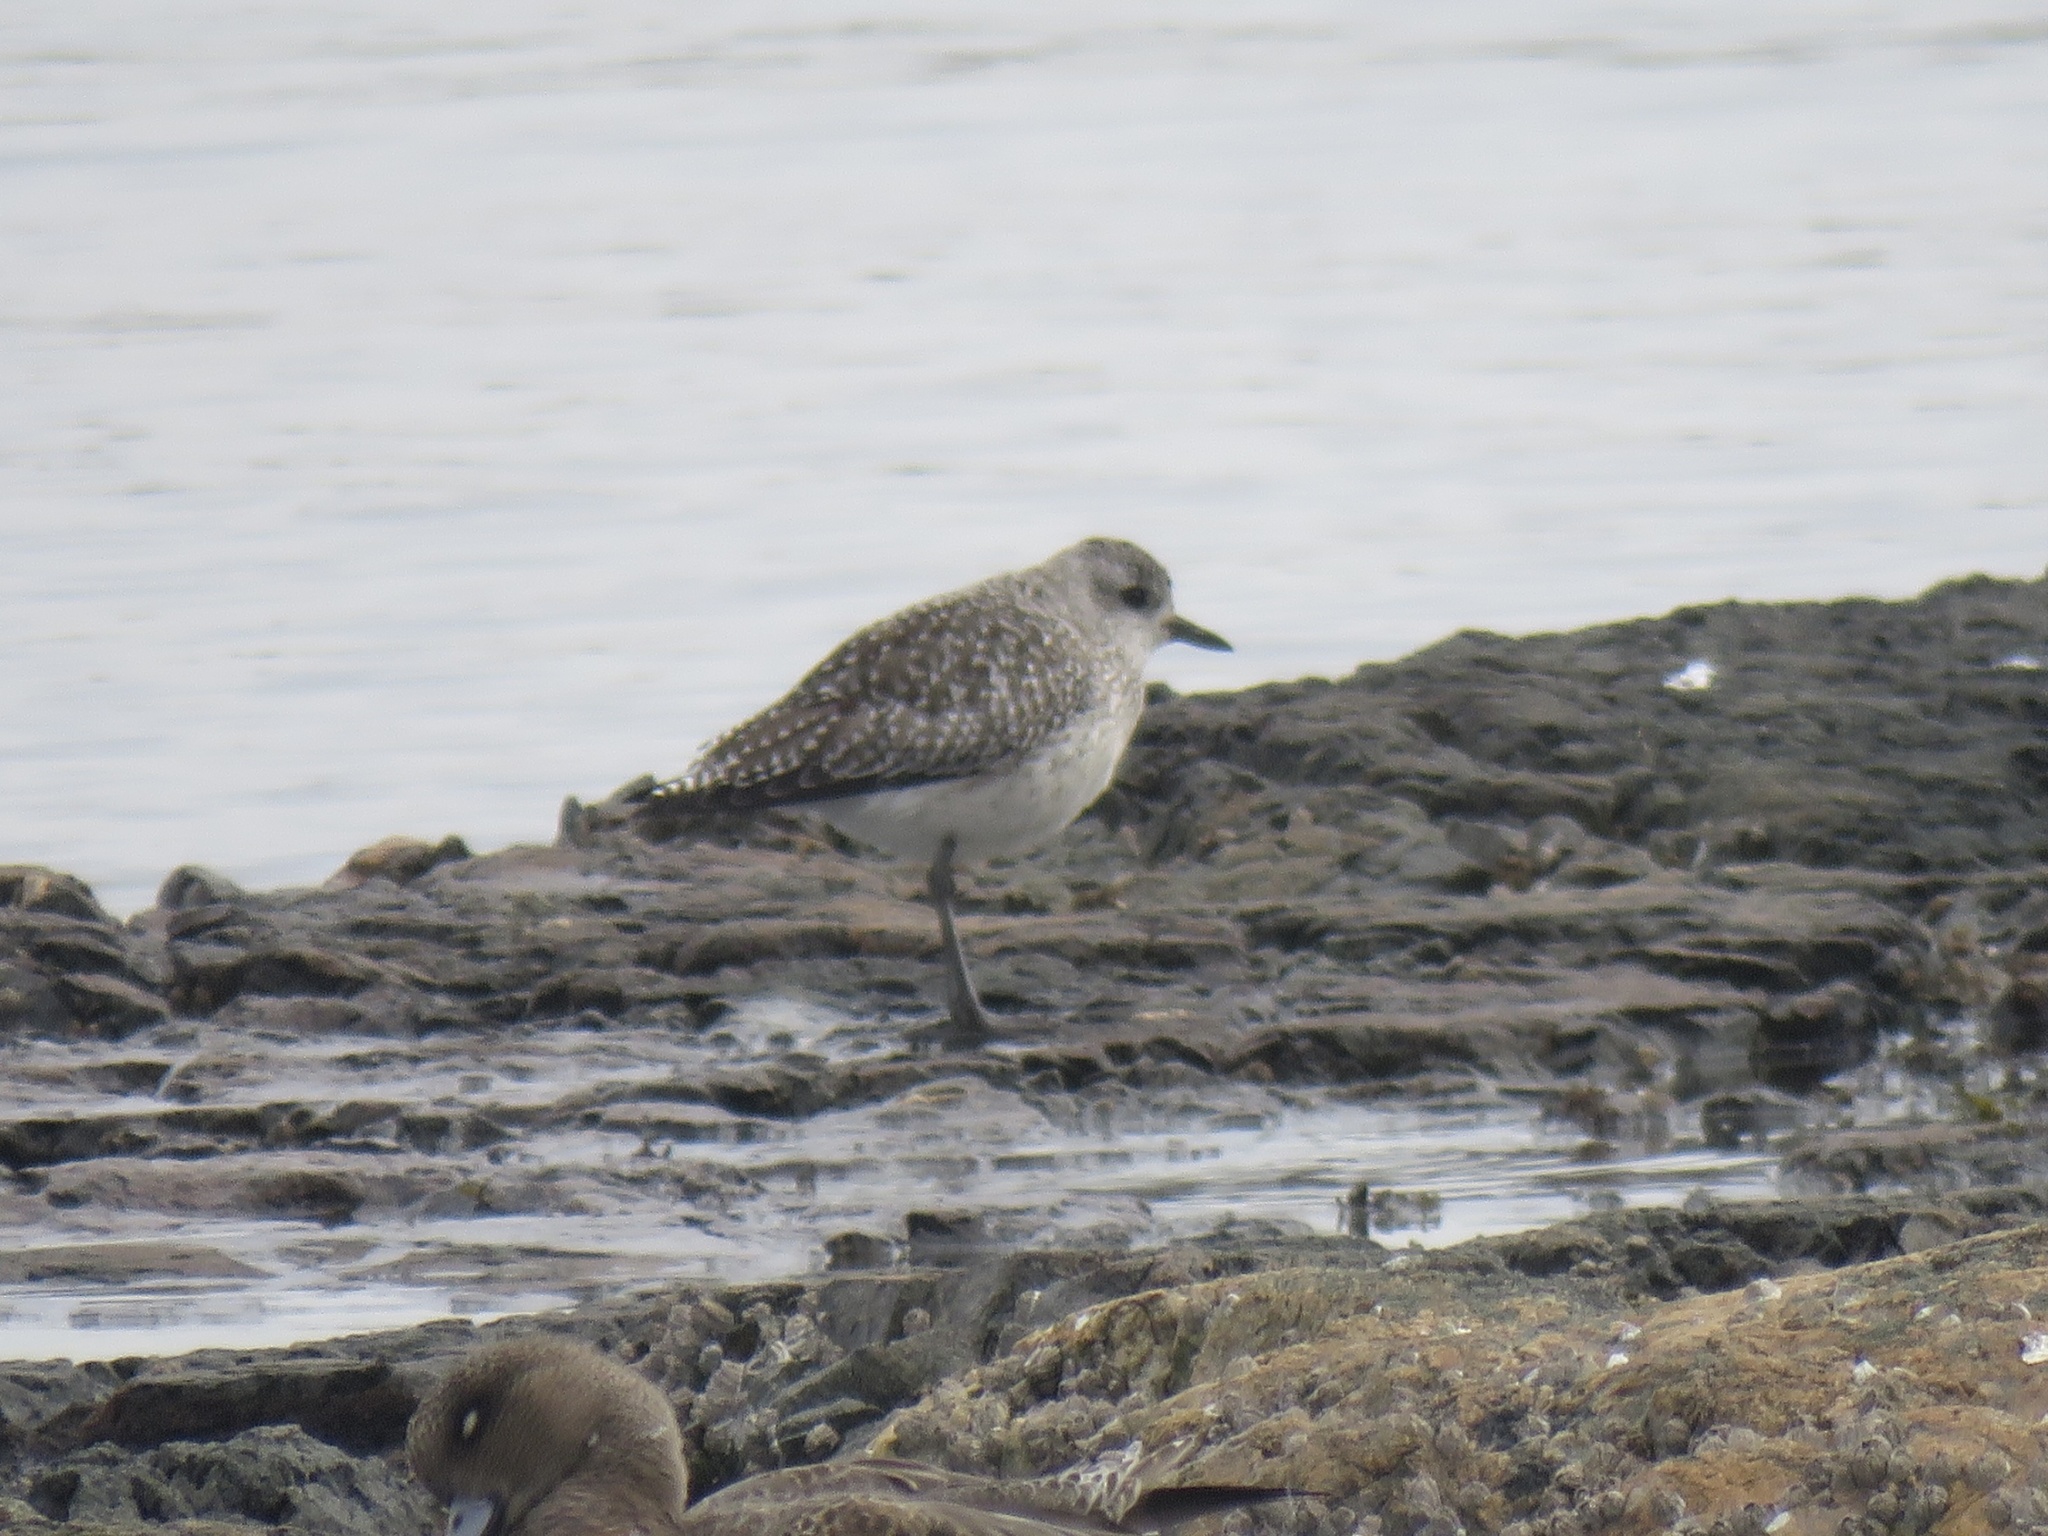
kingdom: Animalia
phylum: Chordata
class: Aves
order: Charadriiformes
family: Charadriidae
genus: Pluvialis
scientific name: Pluvialis squatarola
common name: Grey plover
